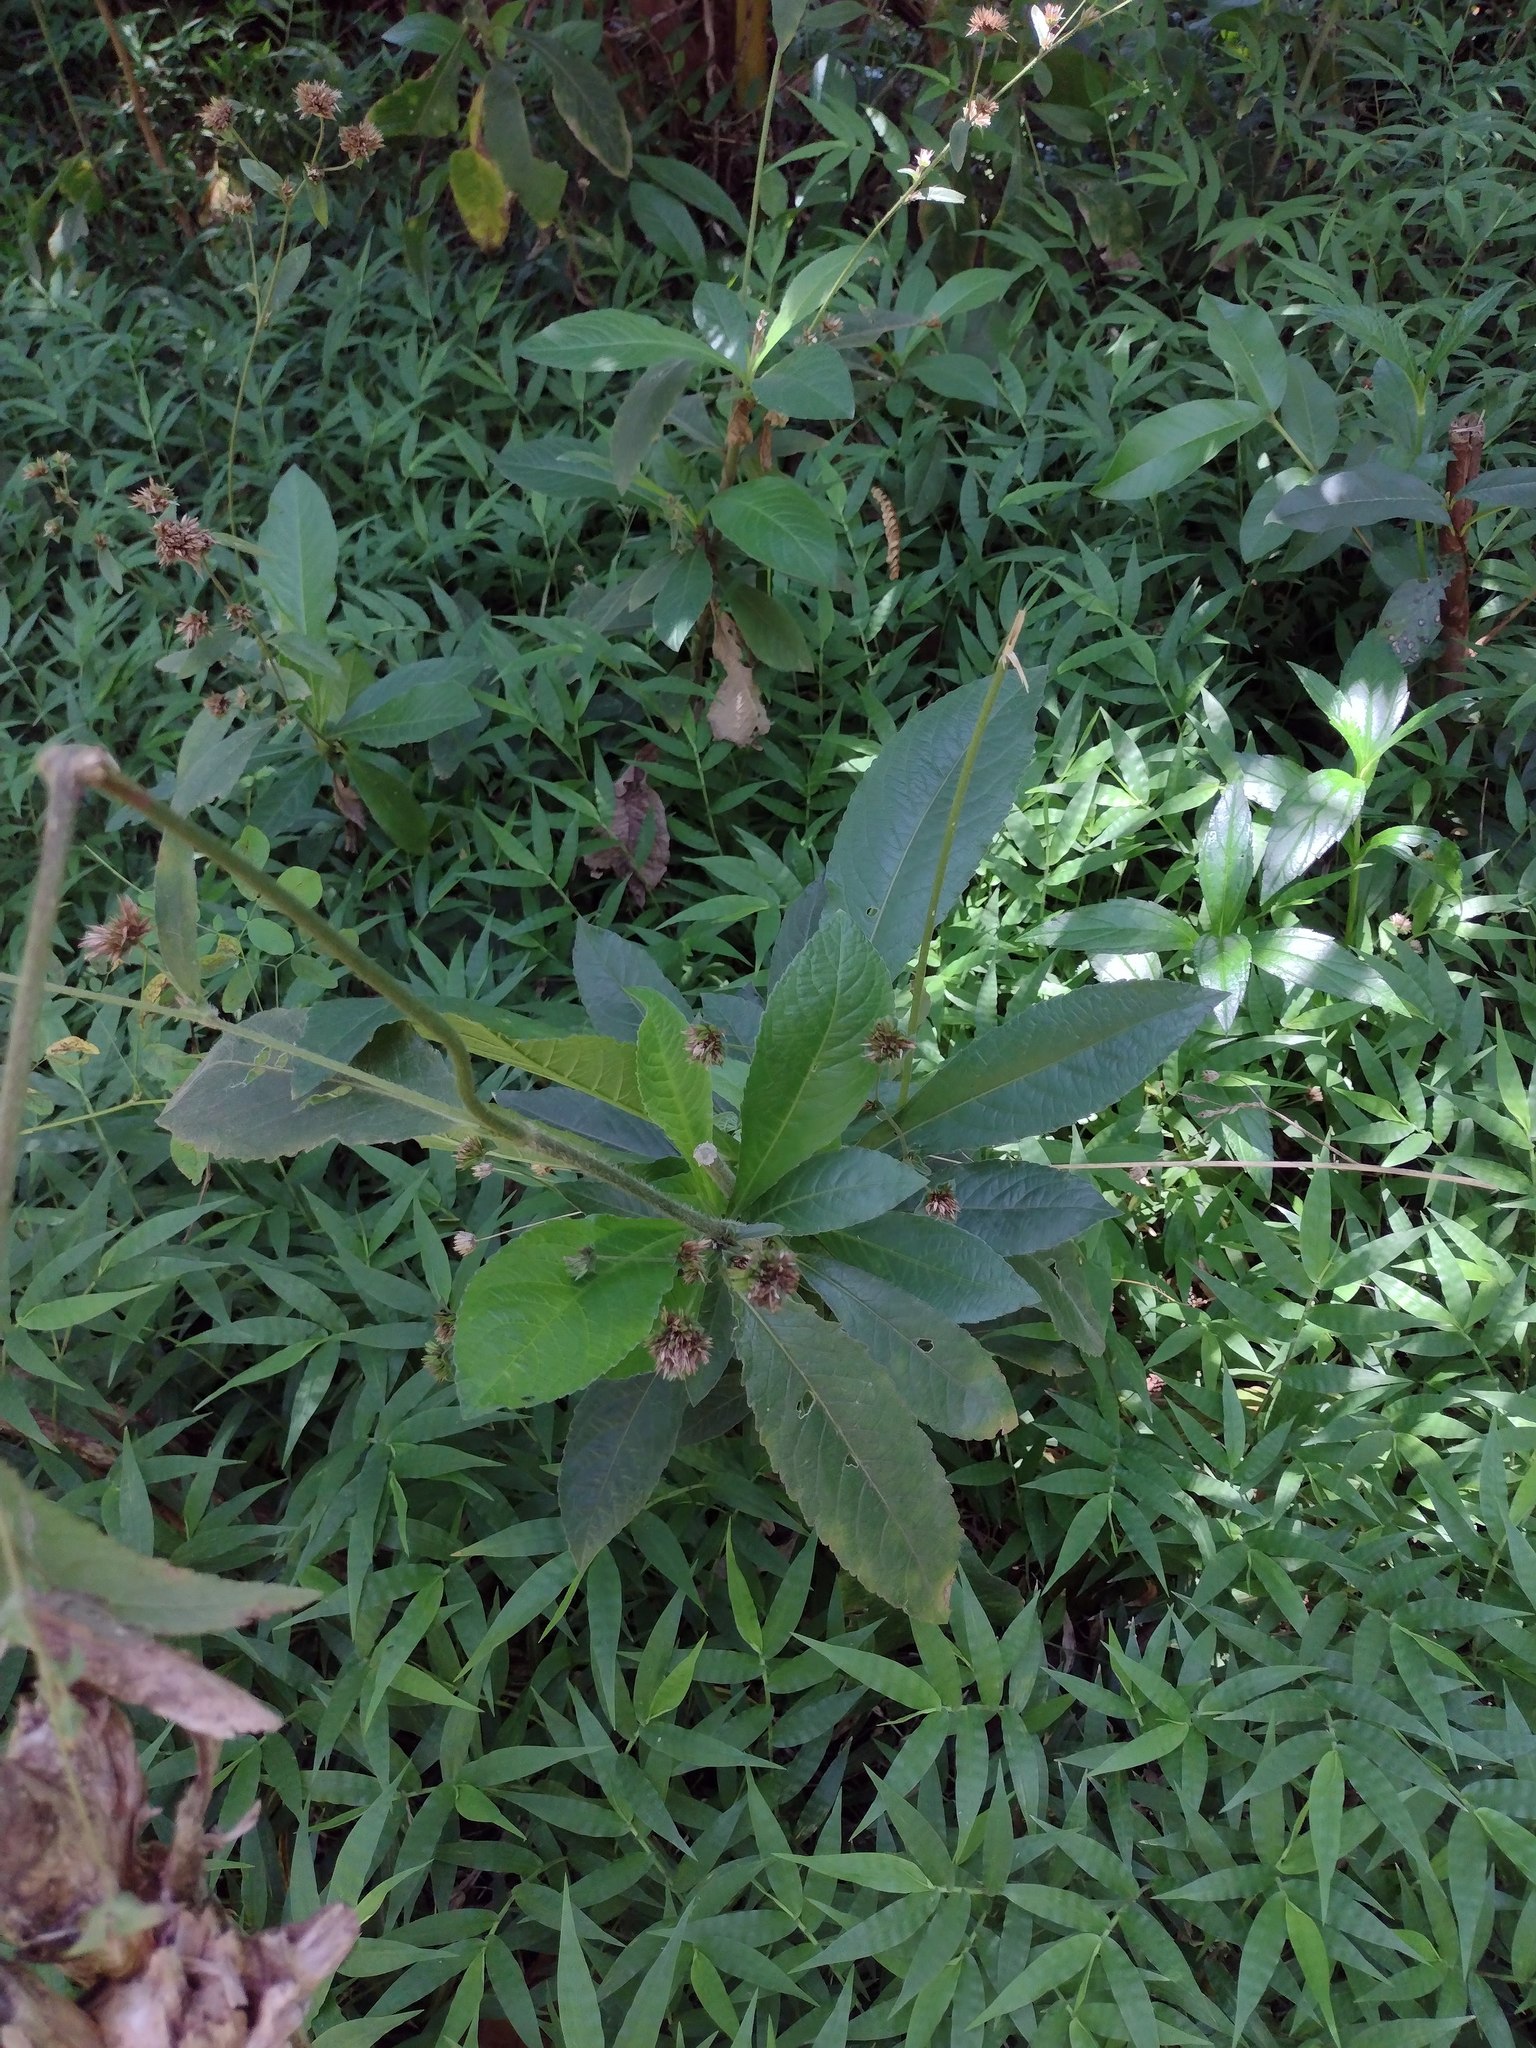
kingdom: Plantae
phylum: Tracheophyta
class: Magnoliopsida
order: Asterales
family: Asteraceae
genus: Elephantopus
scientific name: Elephantopus mollis
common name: Soft elephantsfoot
